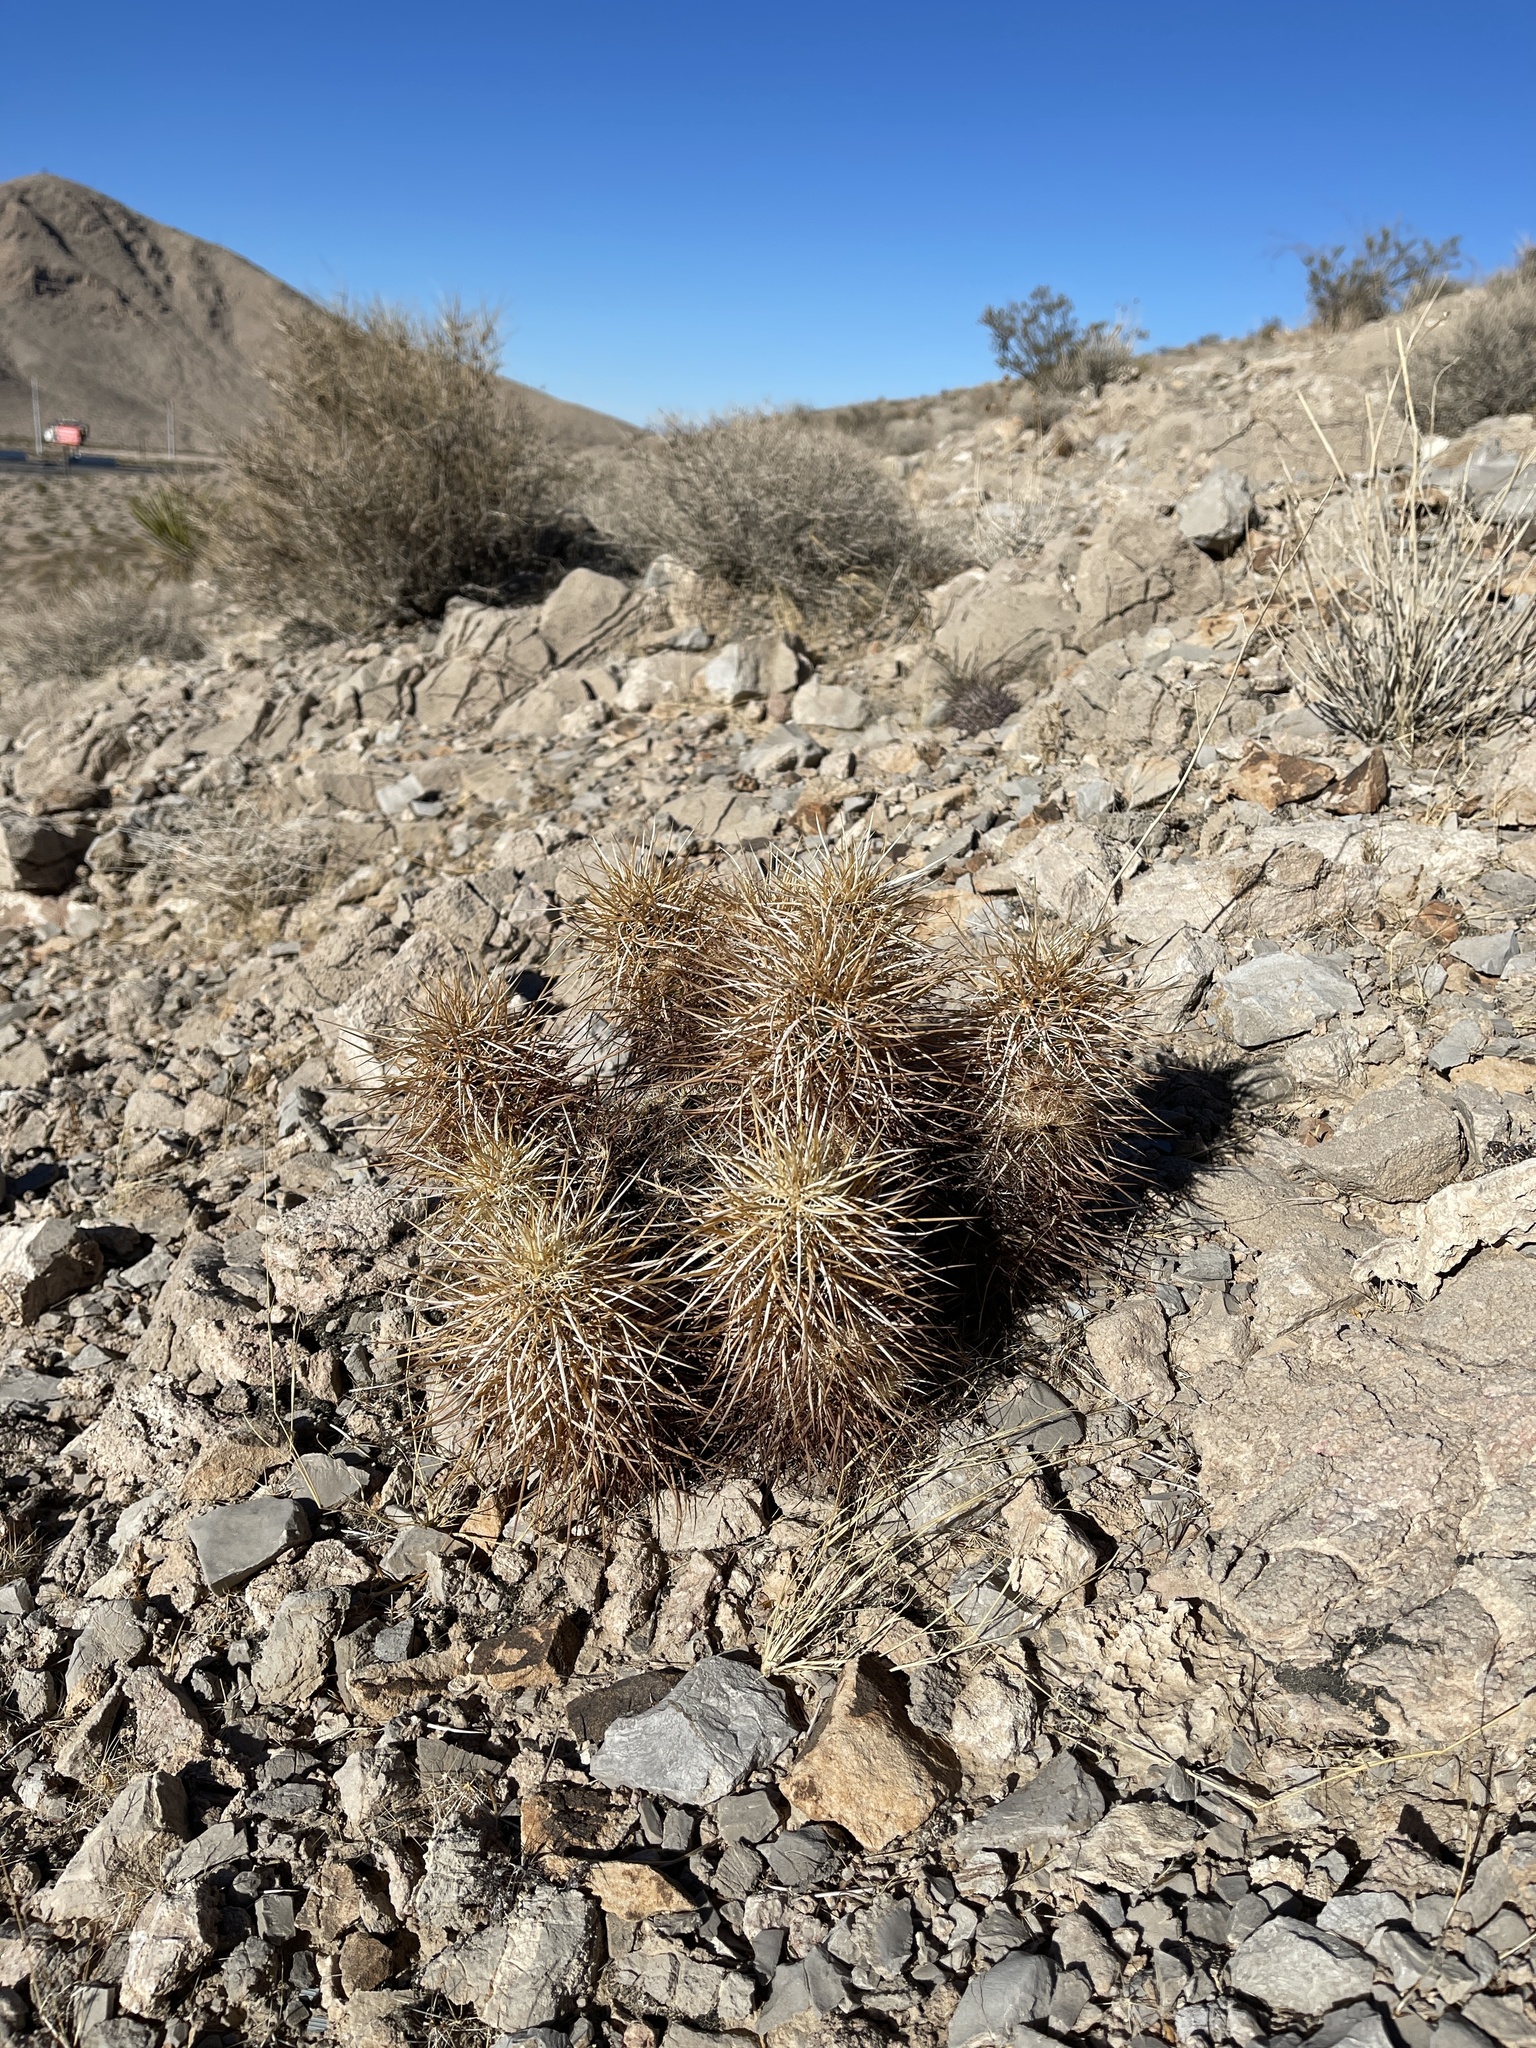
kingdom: Plantae
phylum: Tracheophyta
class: Magnoliopsida
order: Caryophyllales
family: Cactaceae
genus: Echinocereus
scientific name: Echinocereus engelmannii
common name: Engelmann's hedgehog cactus
